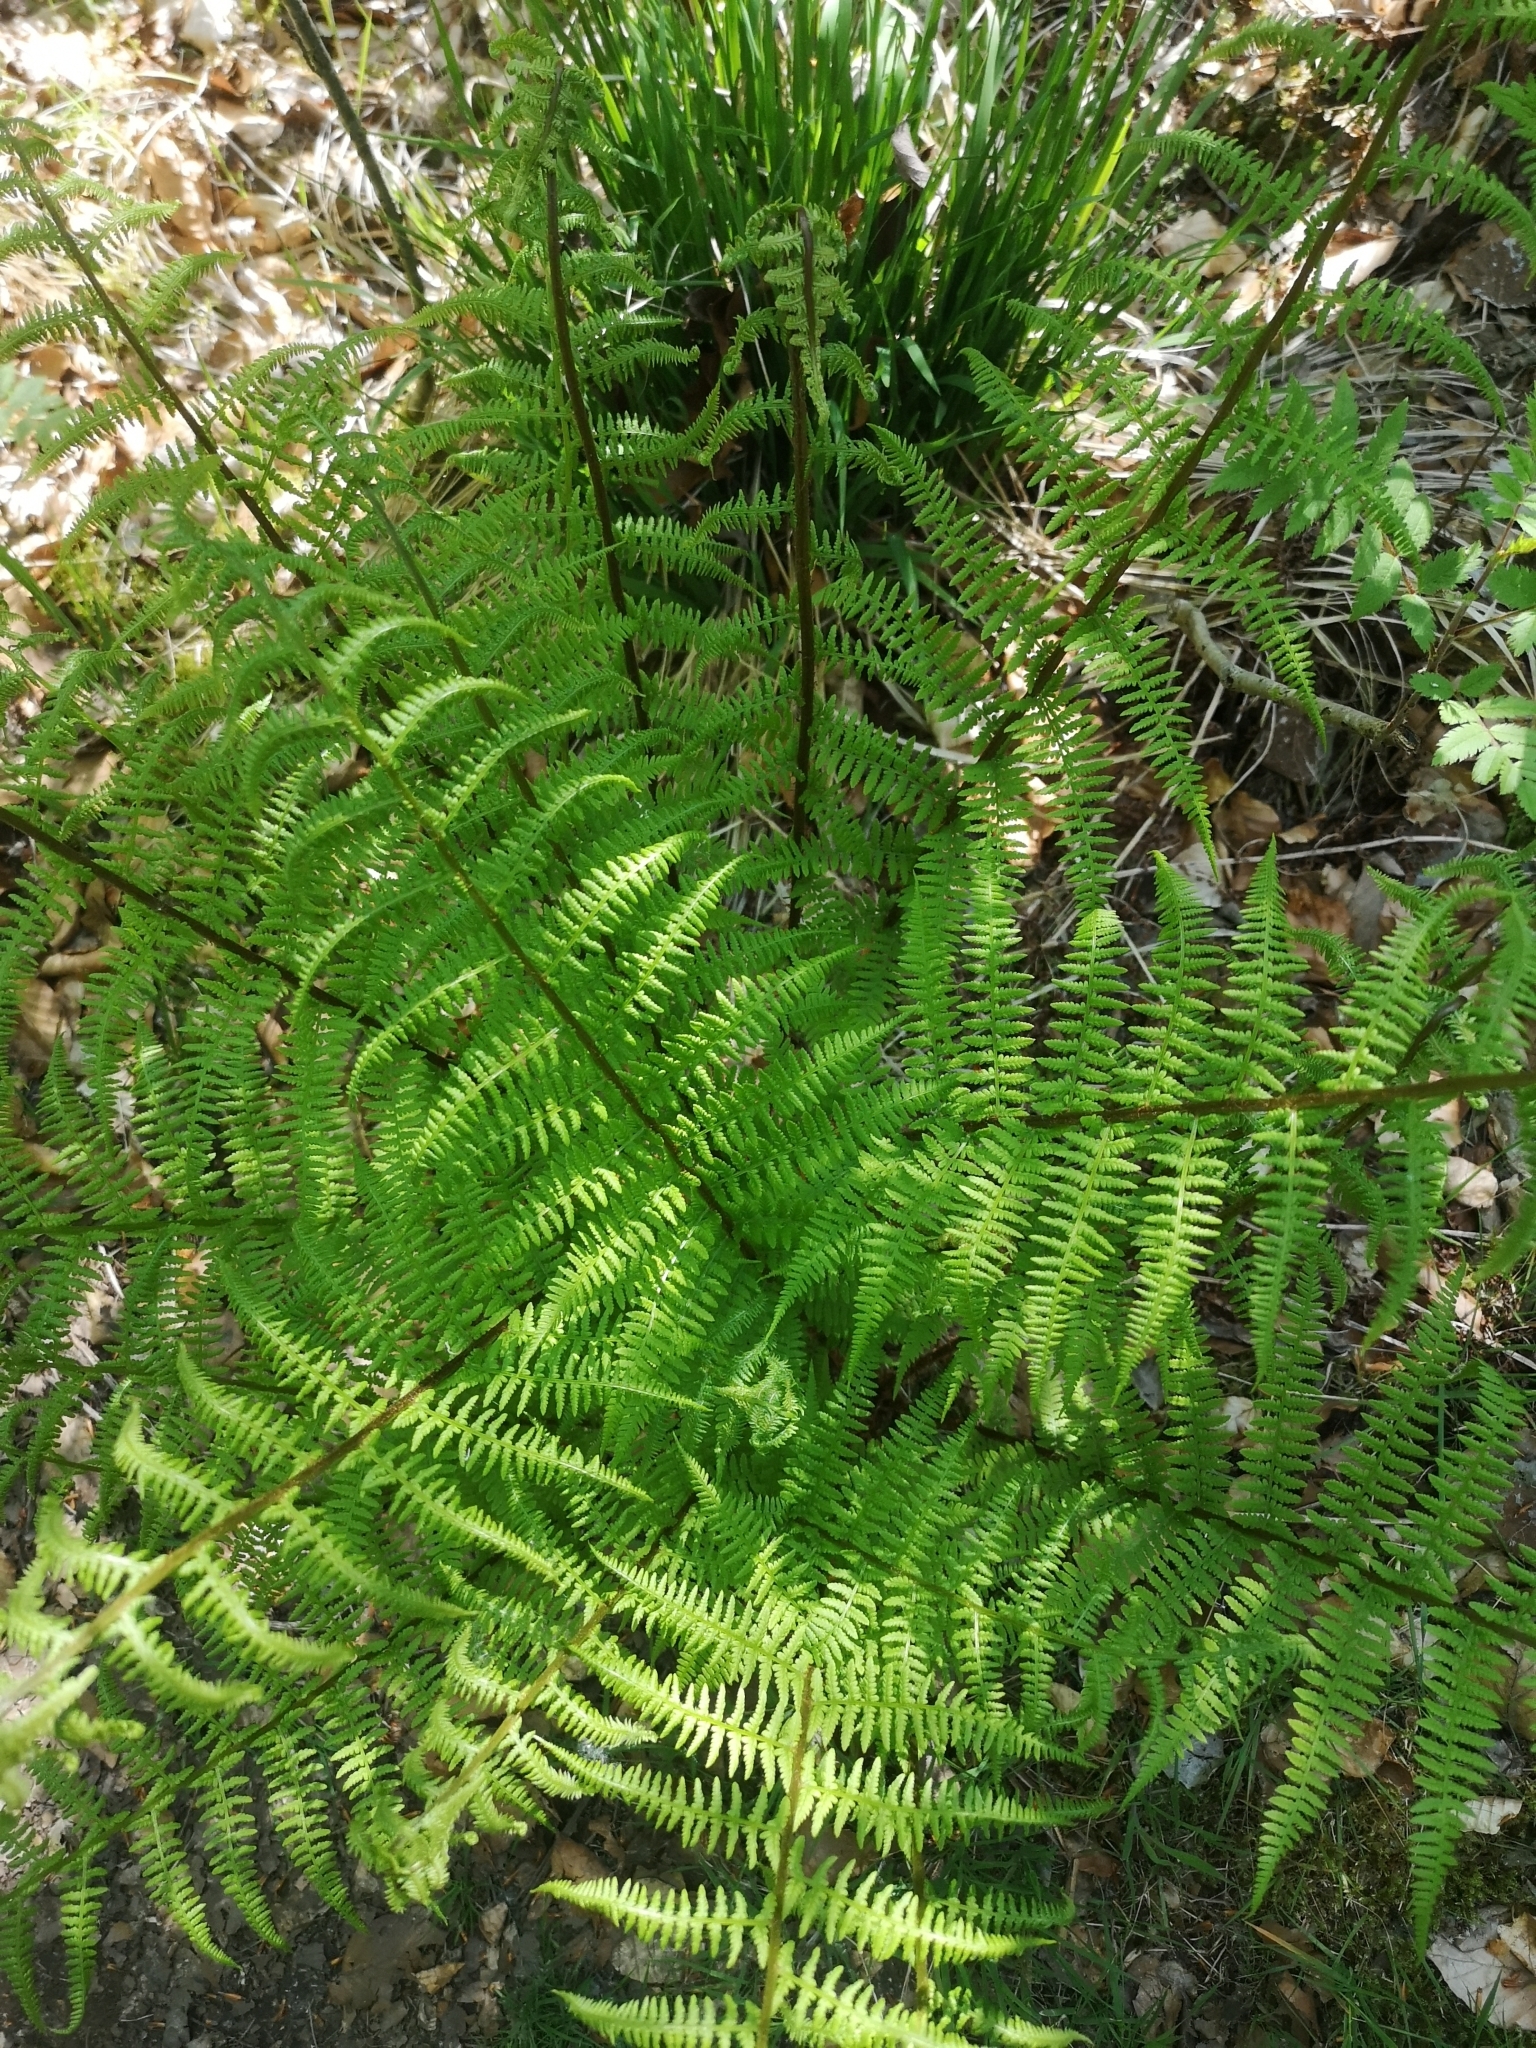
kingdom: Plantae
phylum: Tracheophyta
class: Polypodiopsida
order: Polypodiales
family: Athyriaceae
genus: Athyrium
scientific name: Athyrium filix-femina
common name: Lady fern
